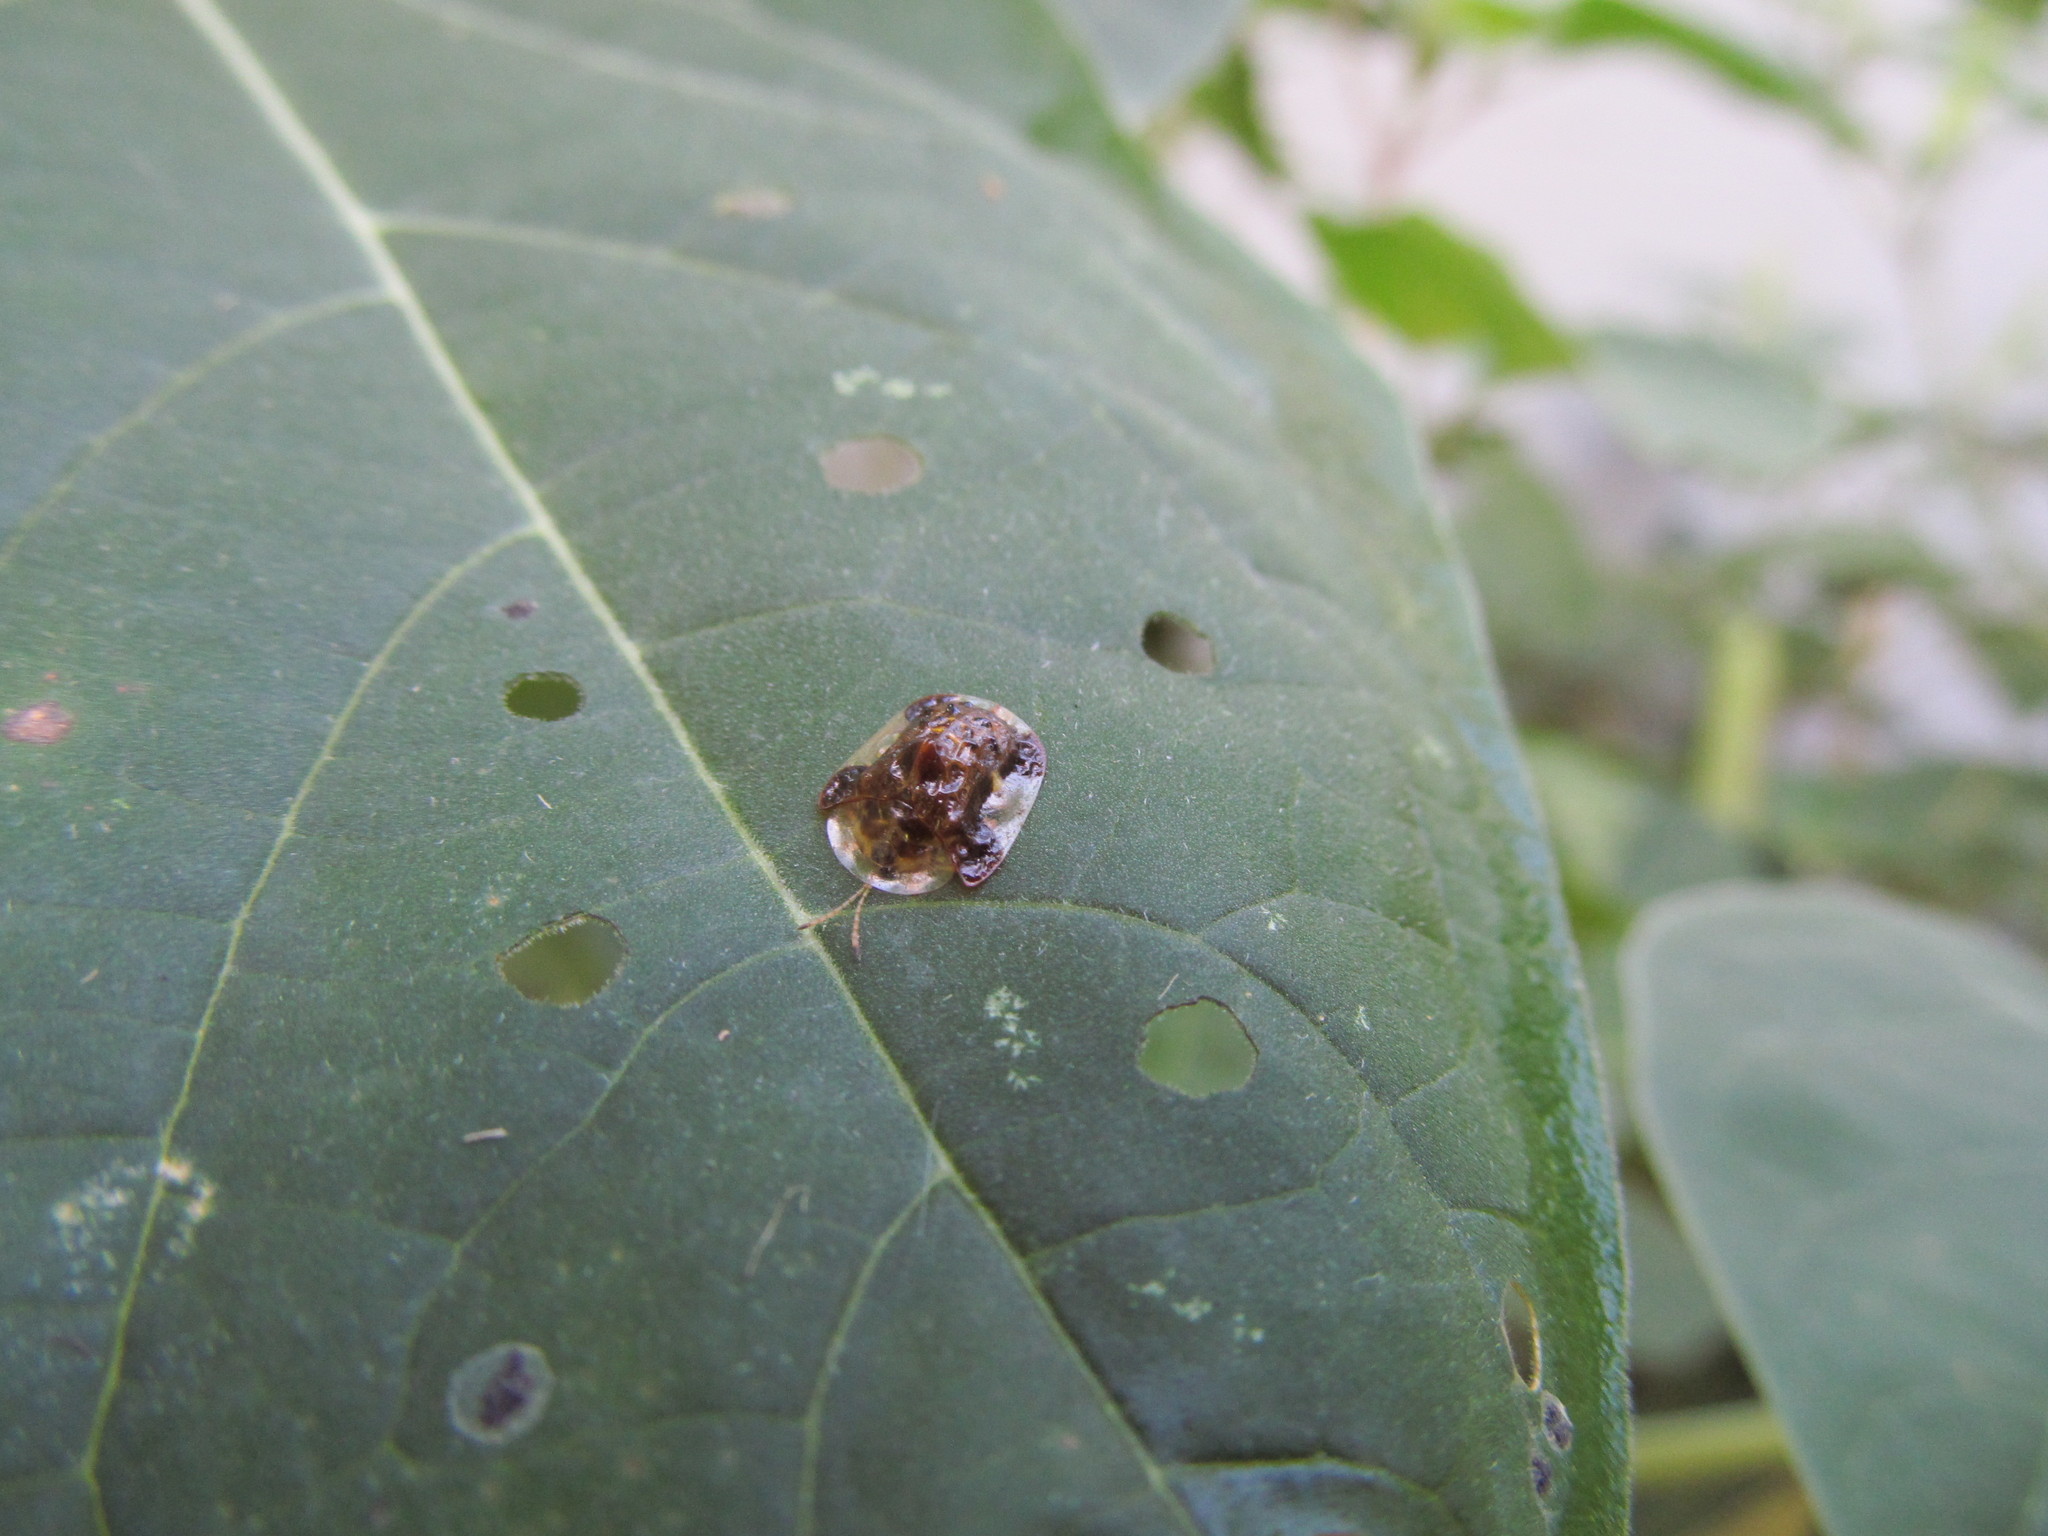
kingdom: Animalia
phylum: Arthropoda
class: Insecta
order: Coleoptera
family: Chrysomelidae
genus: Helocassis
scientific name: Helocassis clavata
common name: Clavate tortoise beetle
